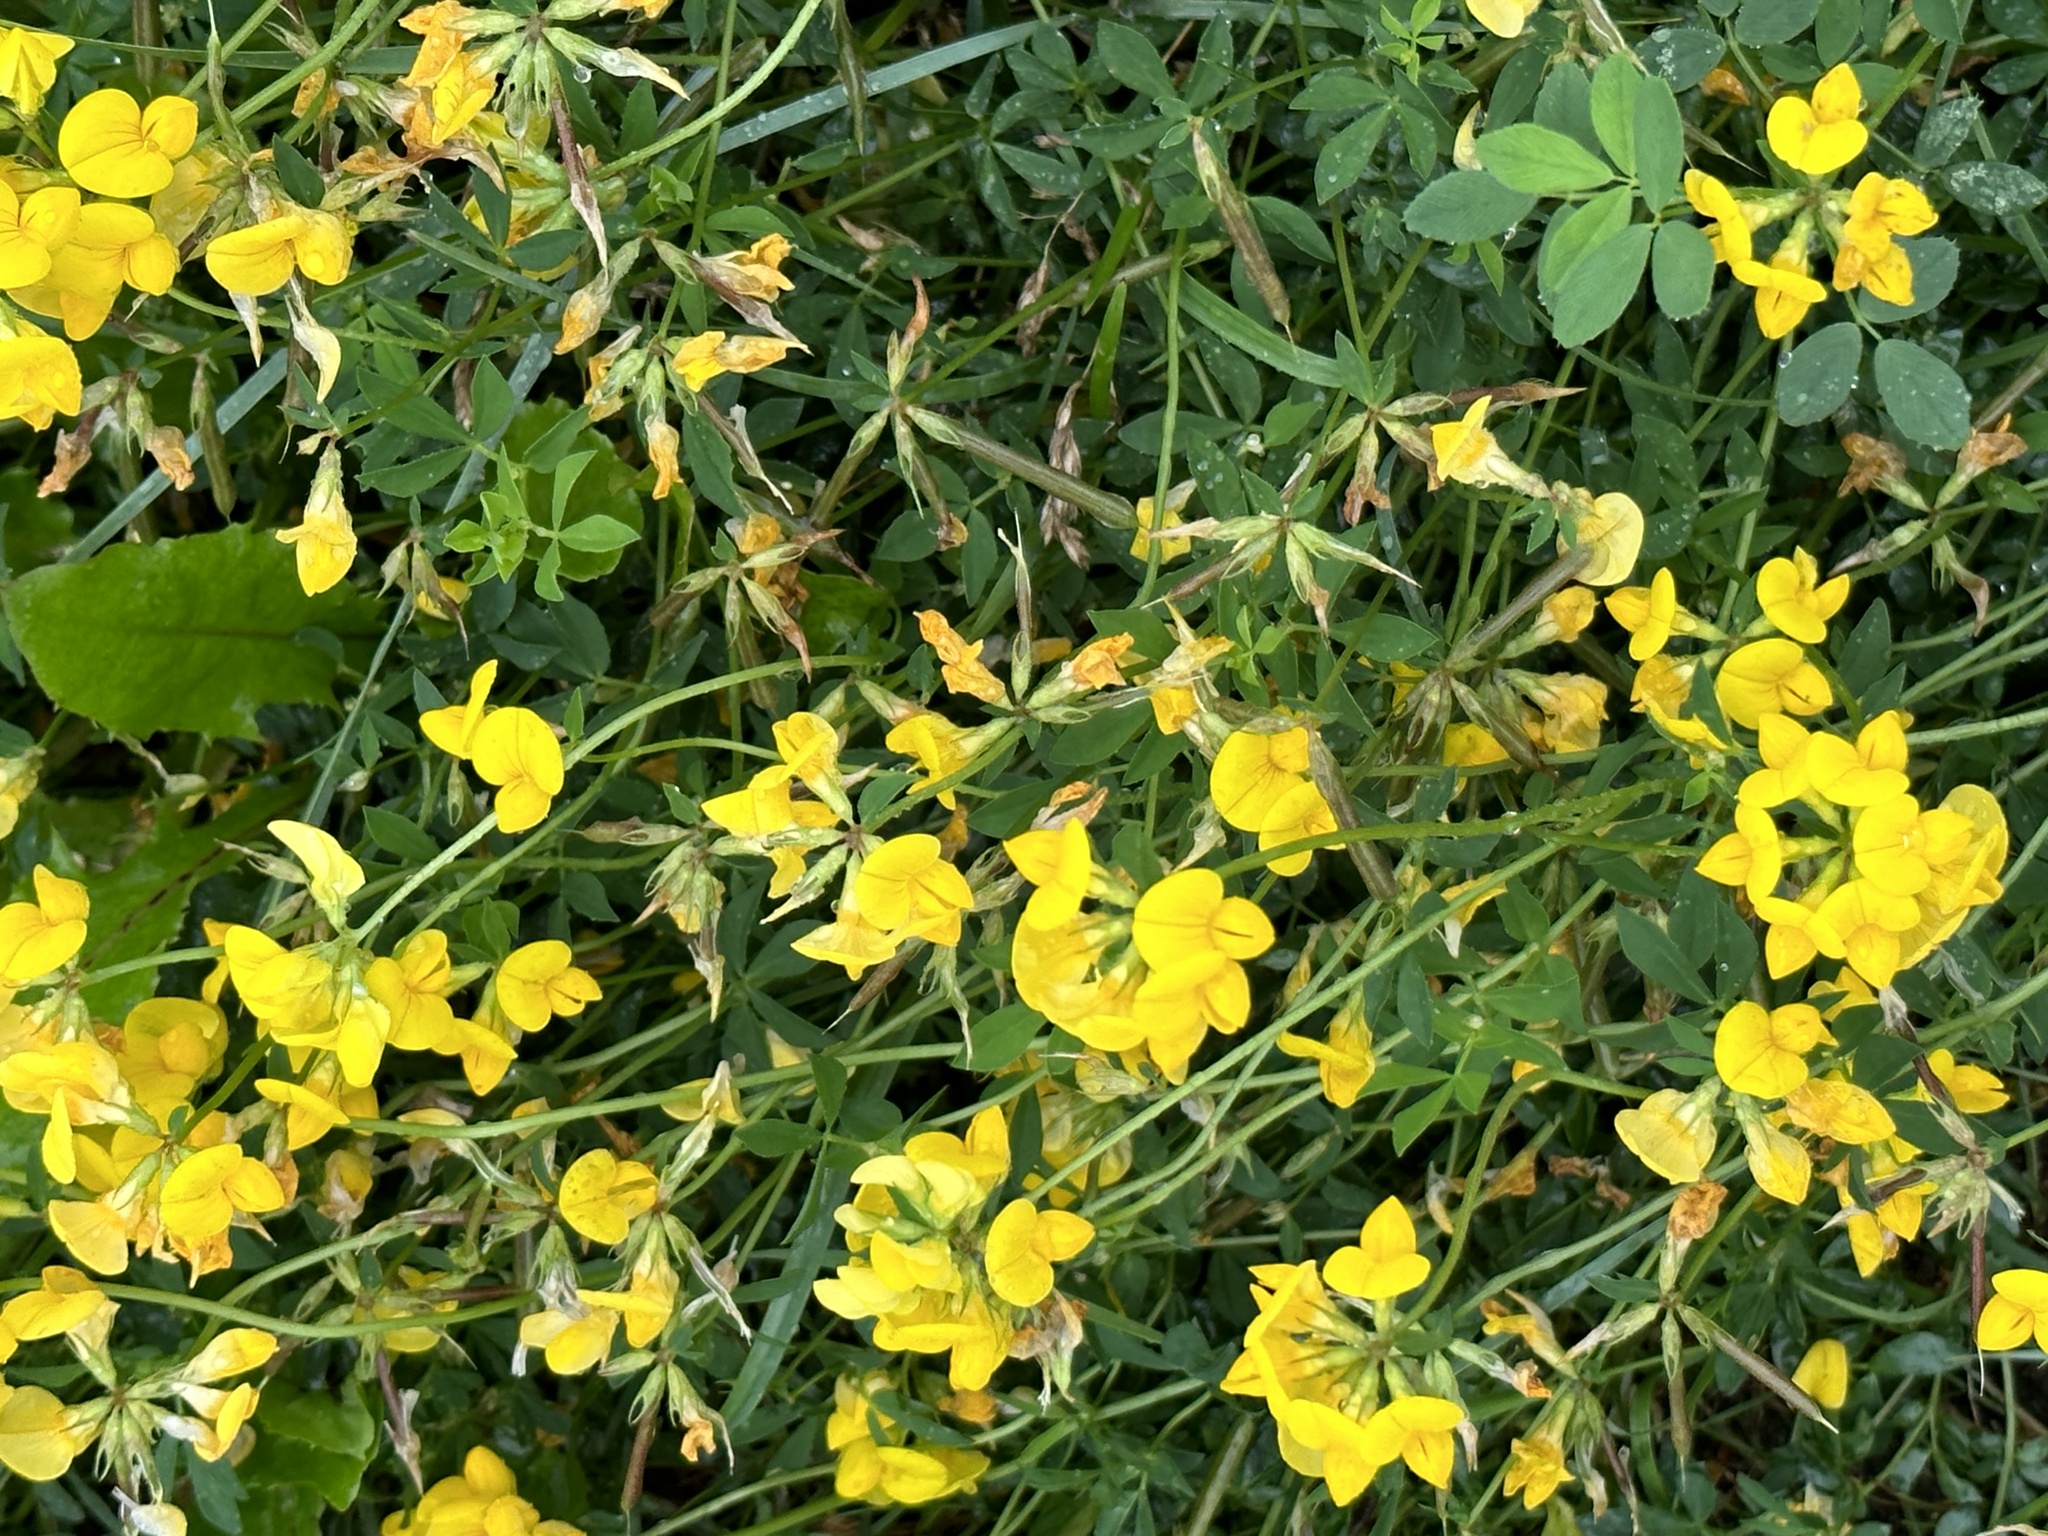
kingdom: Plantae
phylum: Tracheophyta
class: Magnoliopsida
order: Fabales
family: Fabaceae
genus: Lotus
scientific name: Lotus corniculatus
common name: Common bird's-foot-trefoil
